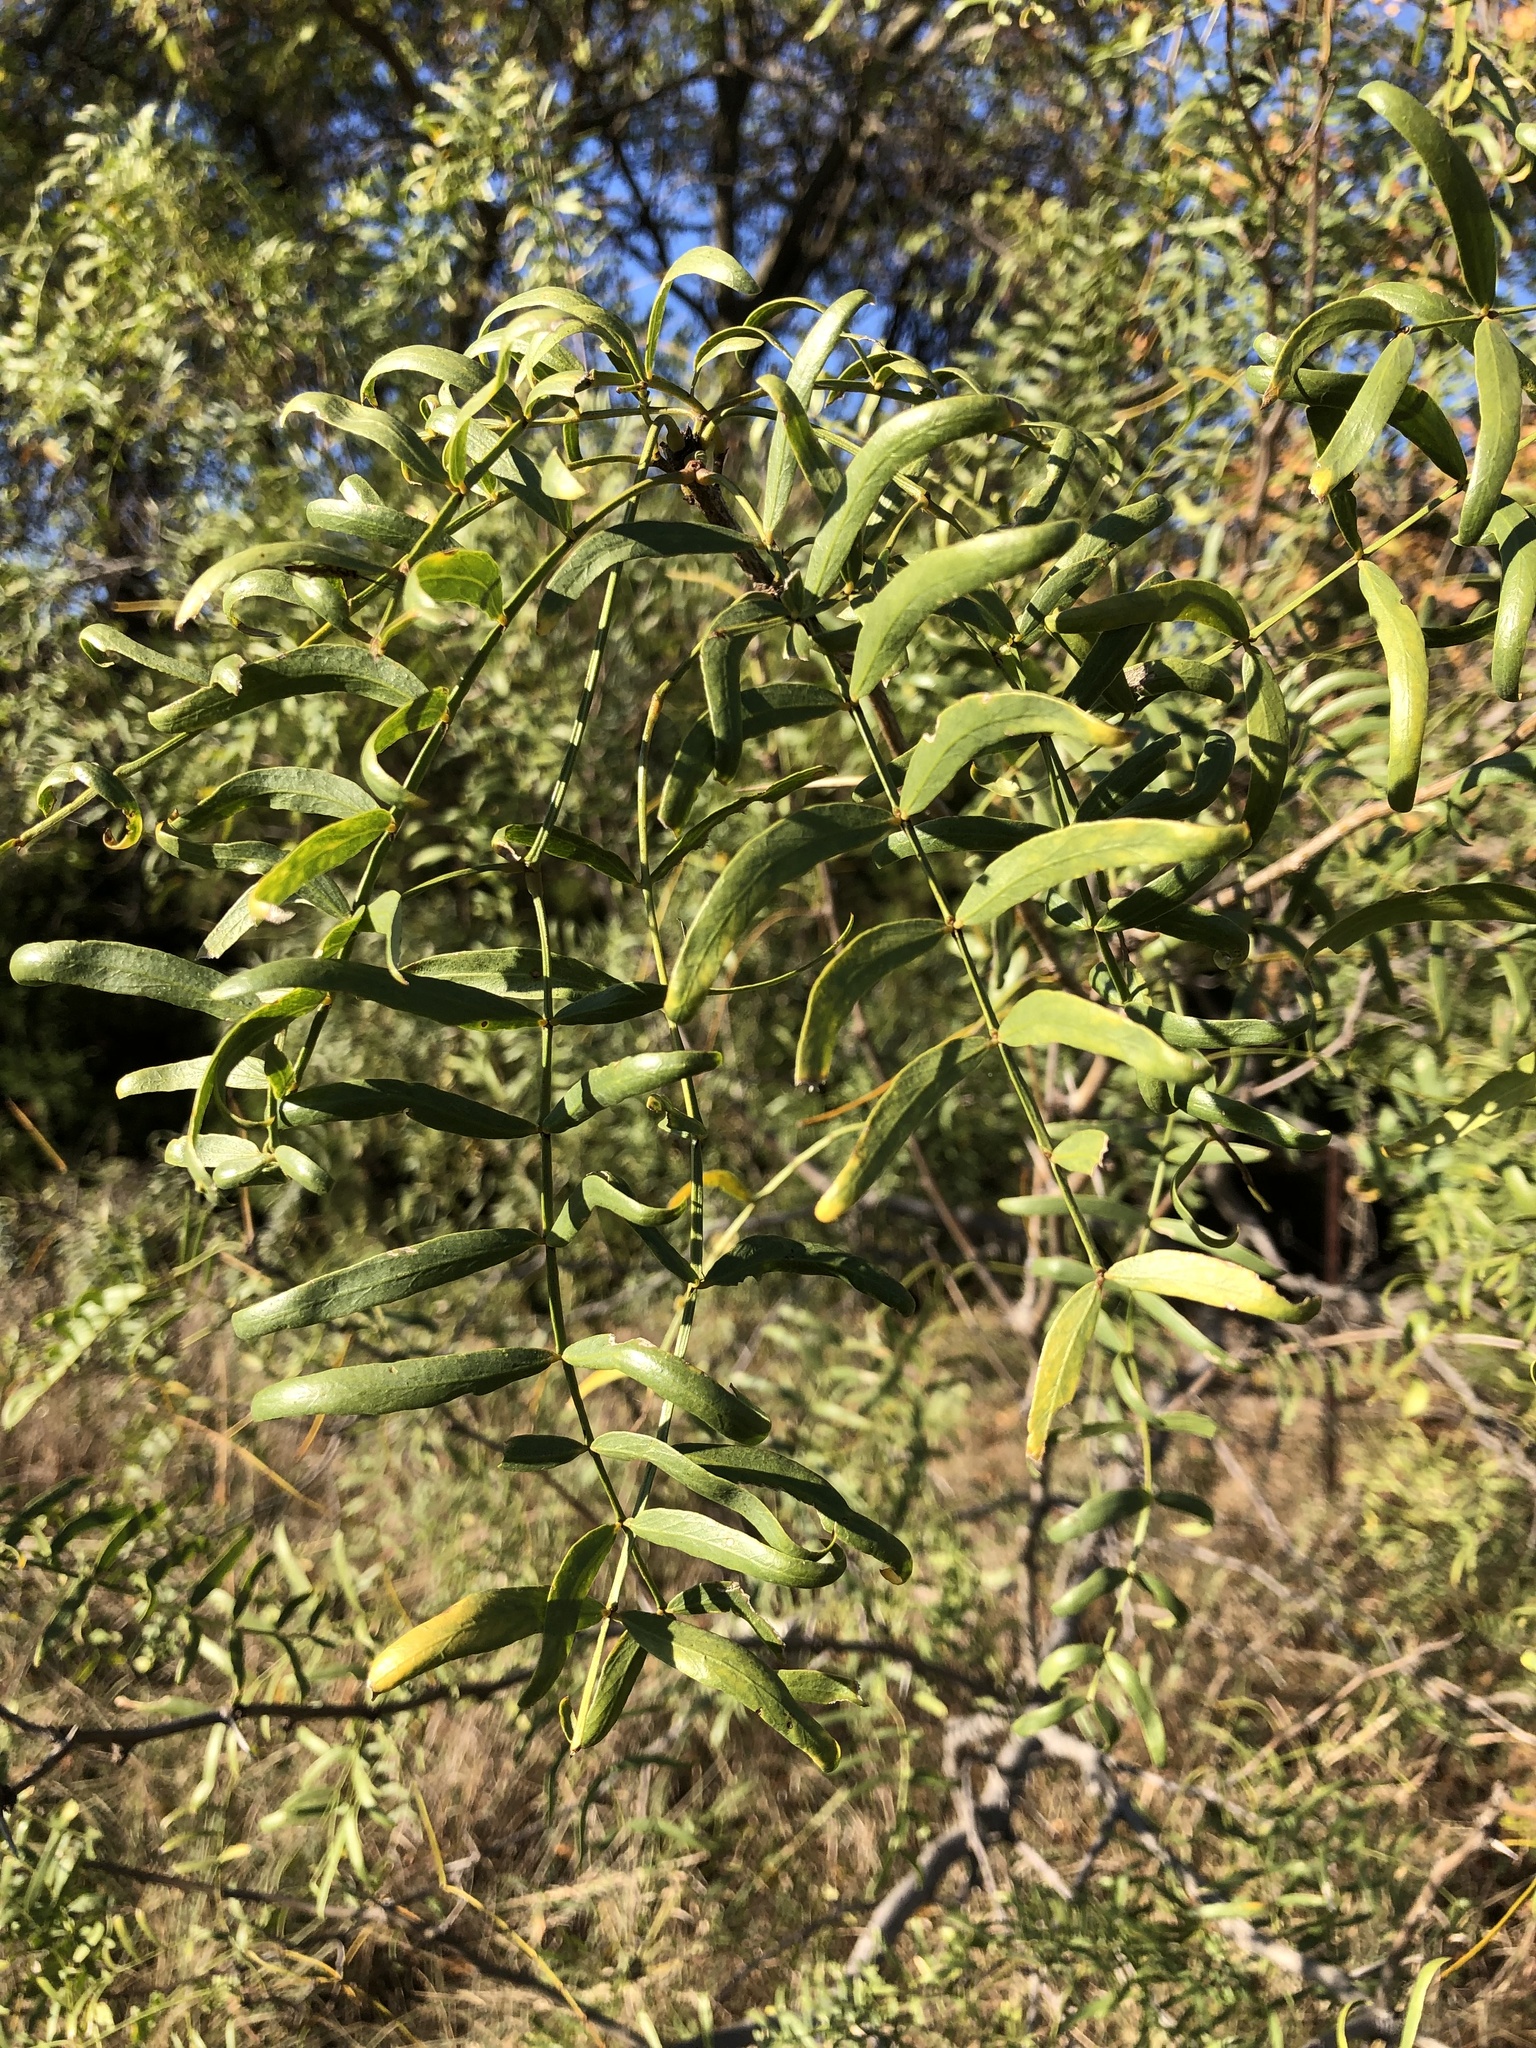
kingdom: Plantae
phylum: Tracheophyta
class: Magnoliopsida
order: Fabales
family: Fabaceae
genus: Prosopis
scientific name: Prosopis glandulosa
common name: Honey mesquite
